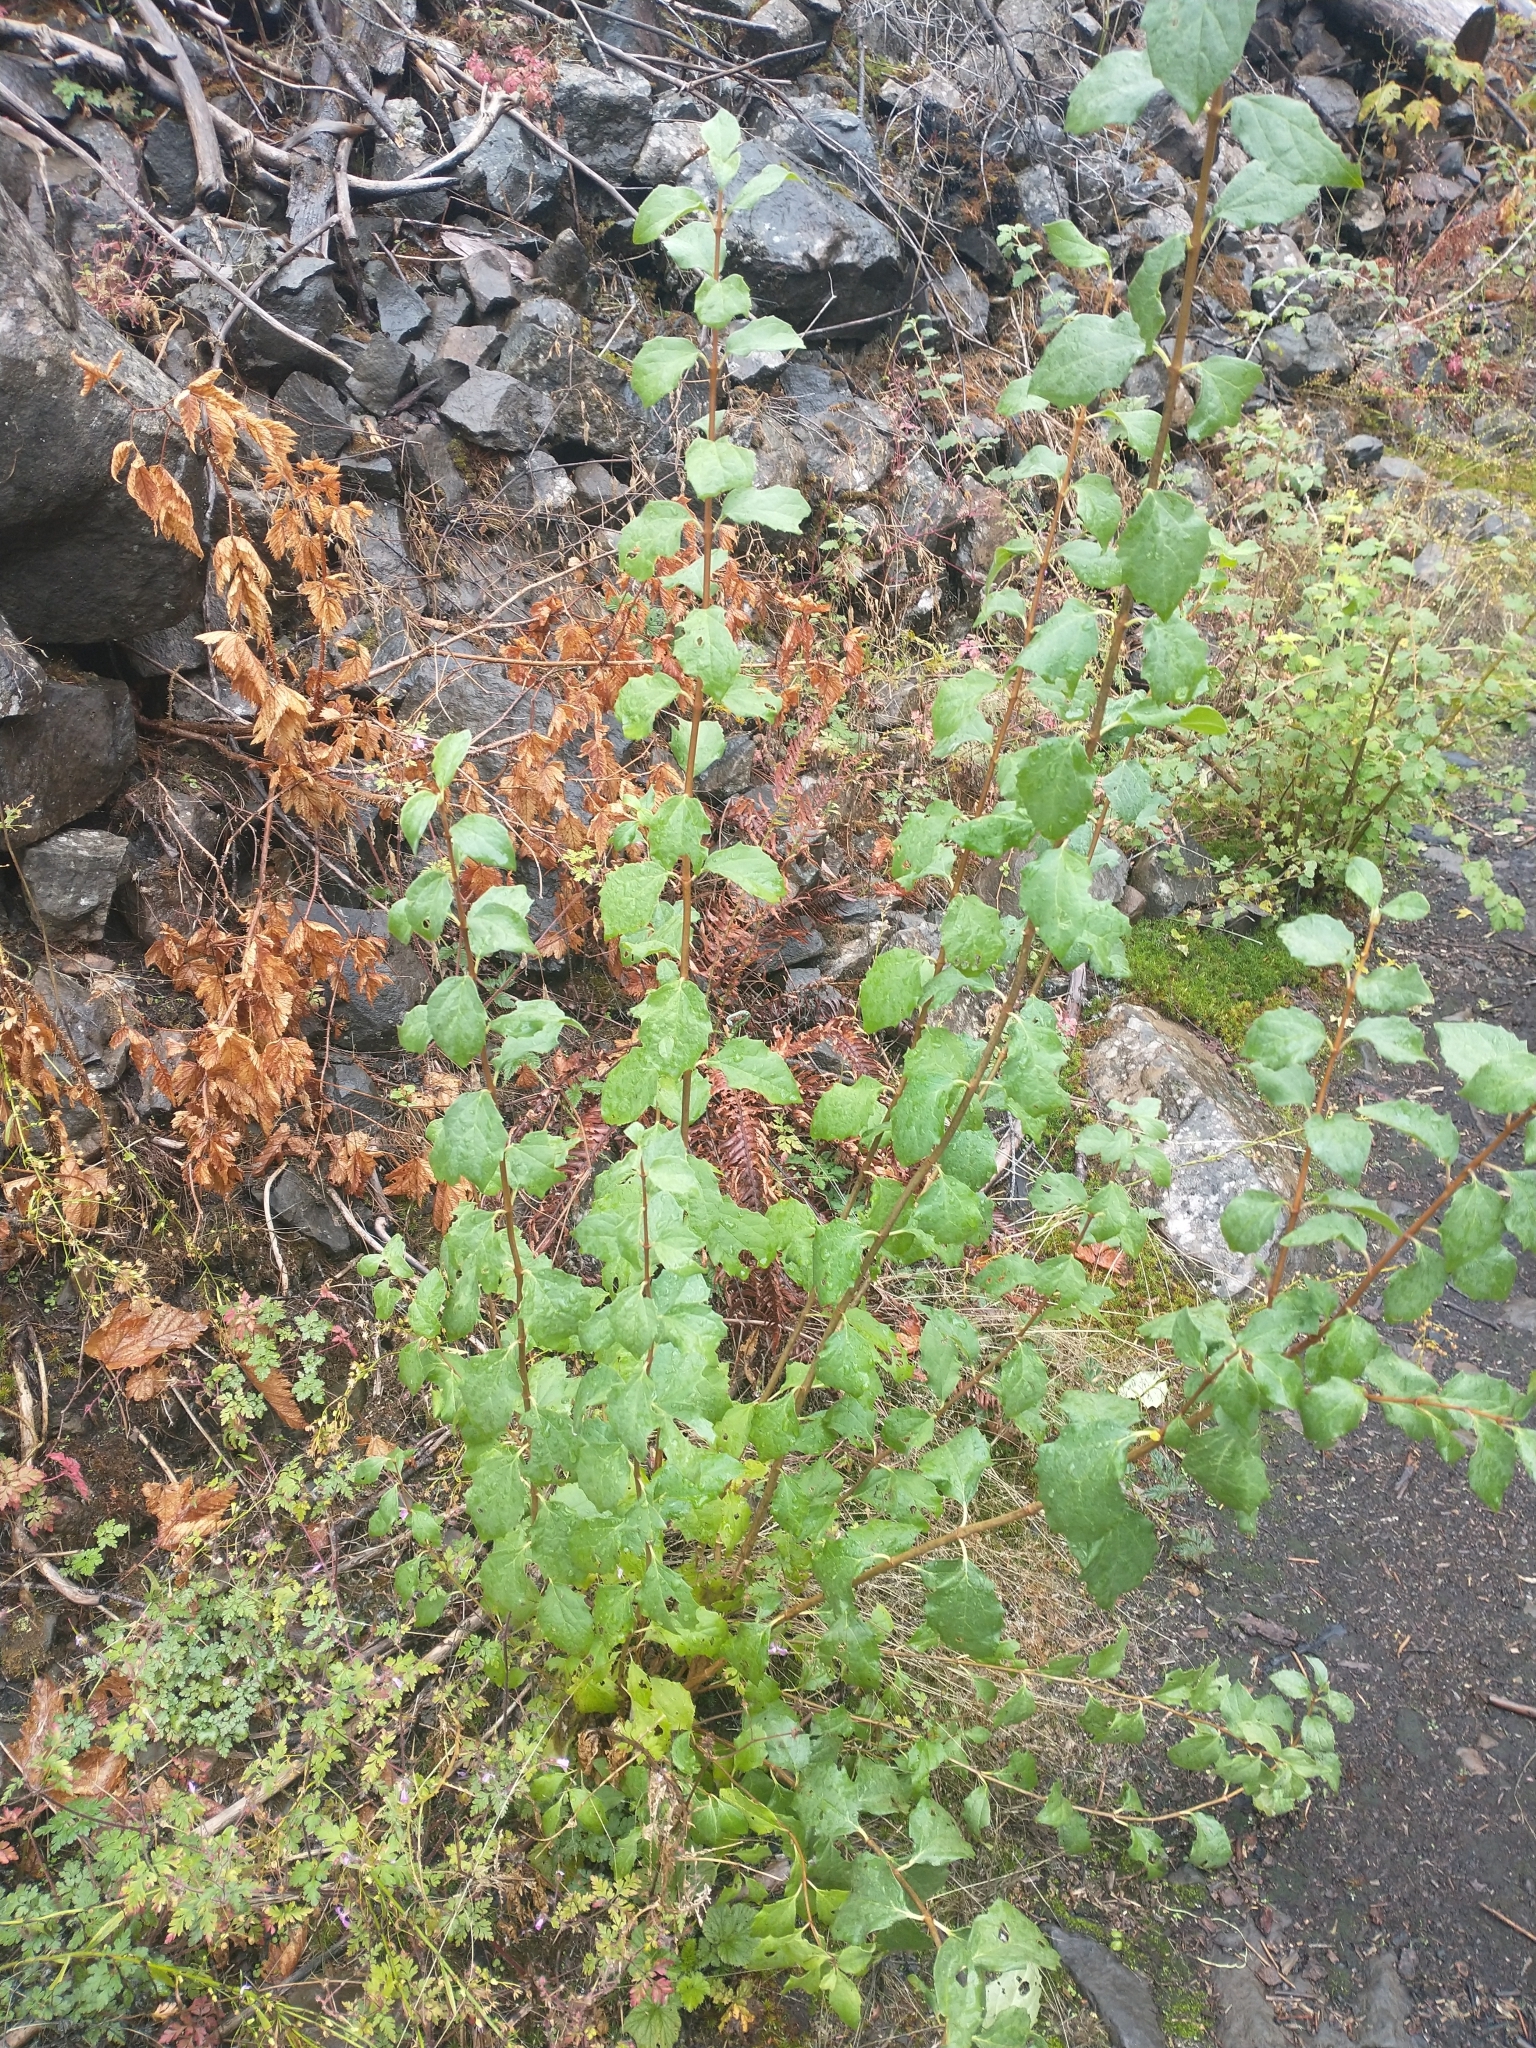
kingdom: Plantae
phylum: Tracheophyta
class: Magnoliopsida
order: Cornales
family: Hydrangeaceae
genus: Philadelphus
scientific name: Philadelphus lewisii
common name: Lewis's mock orange
